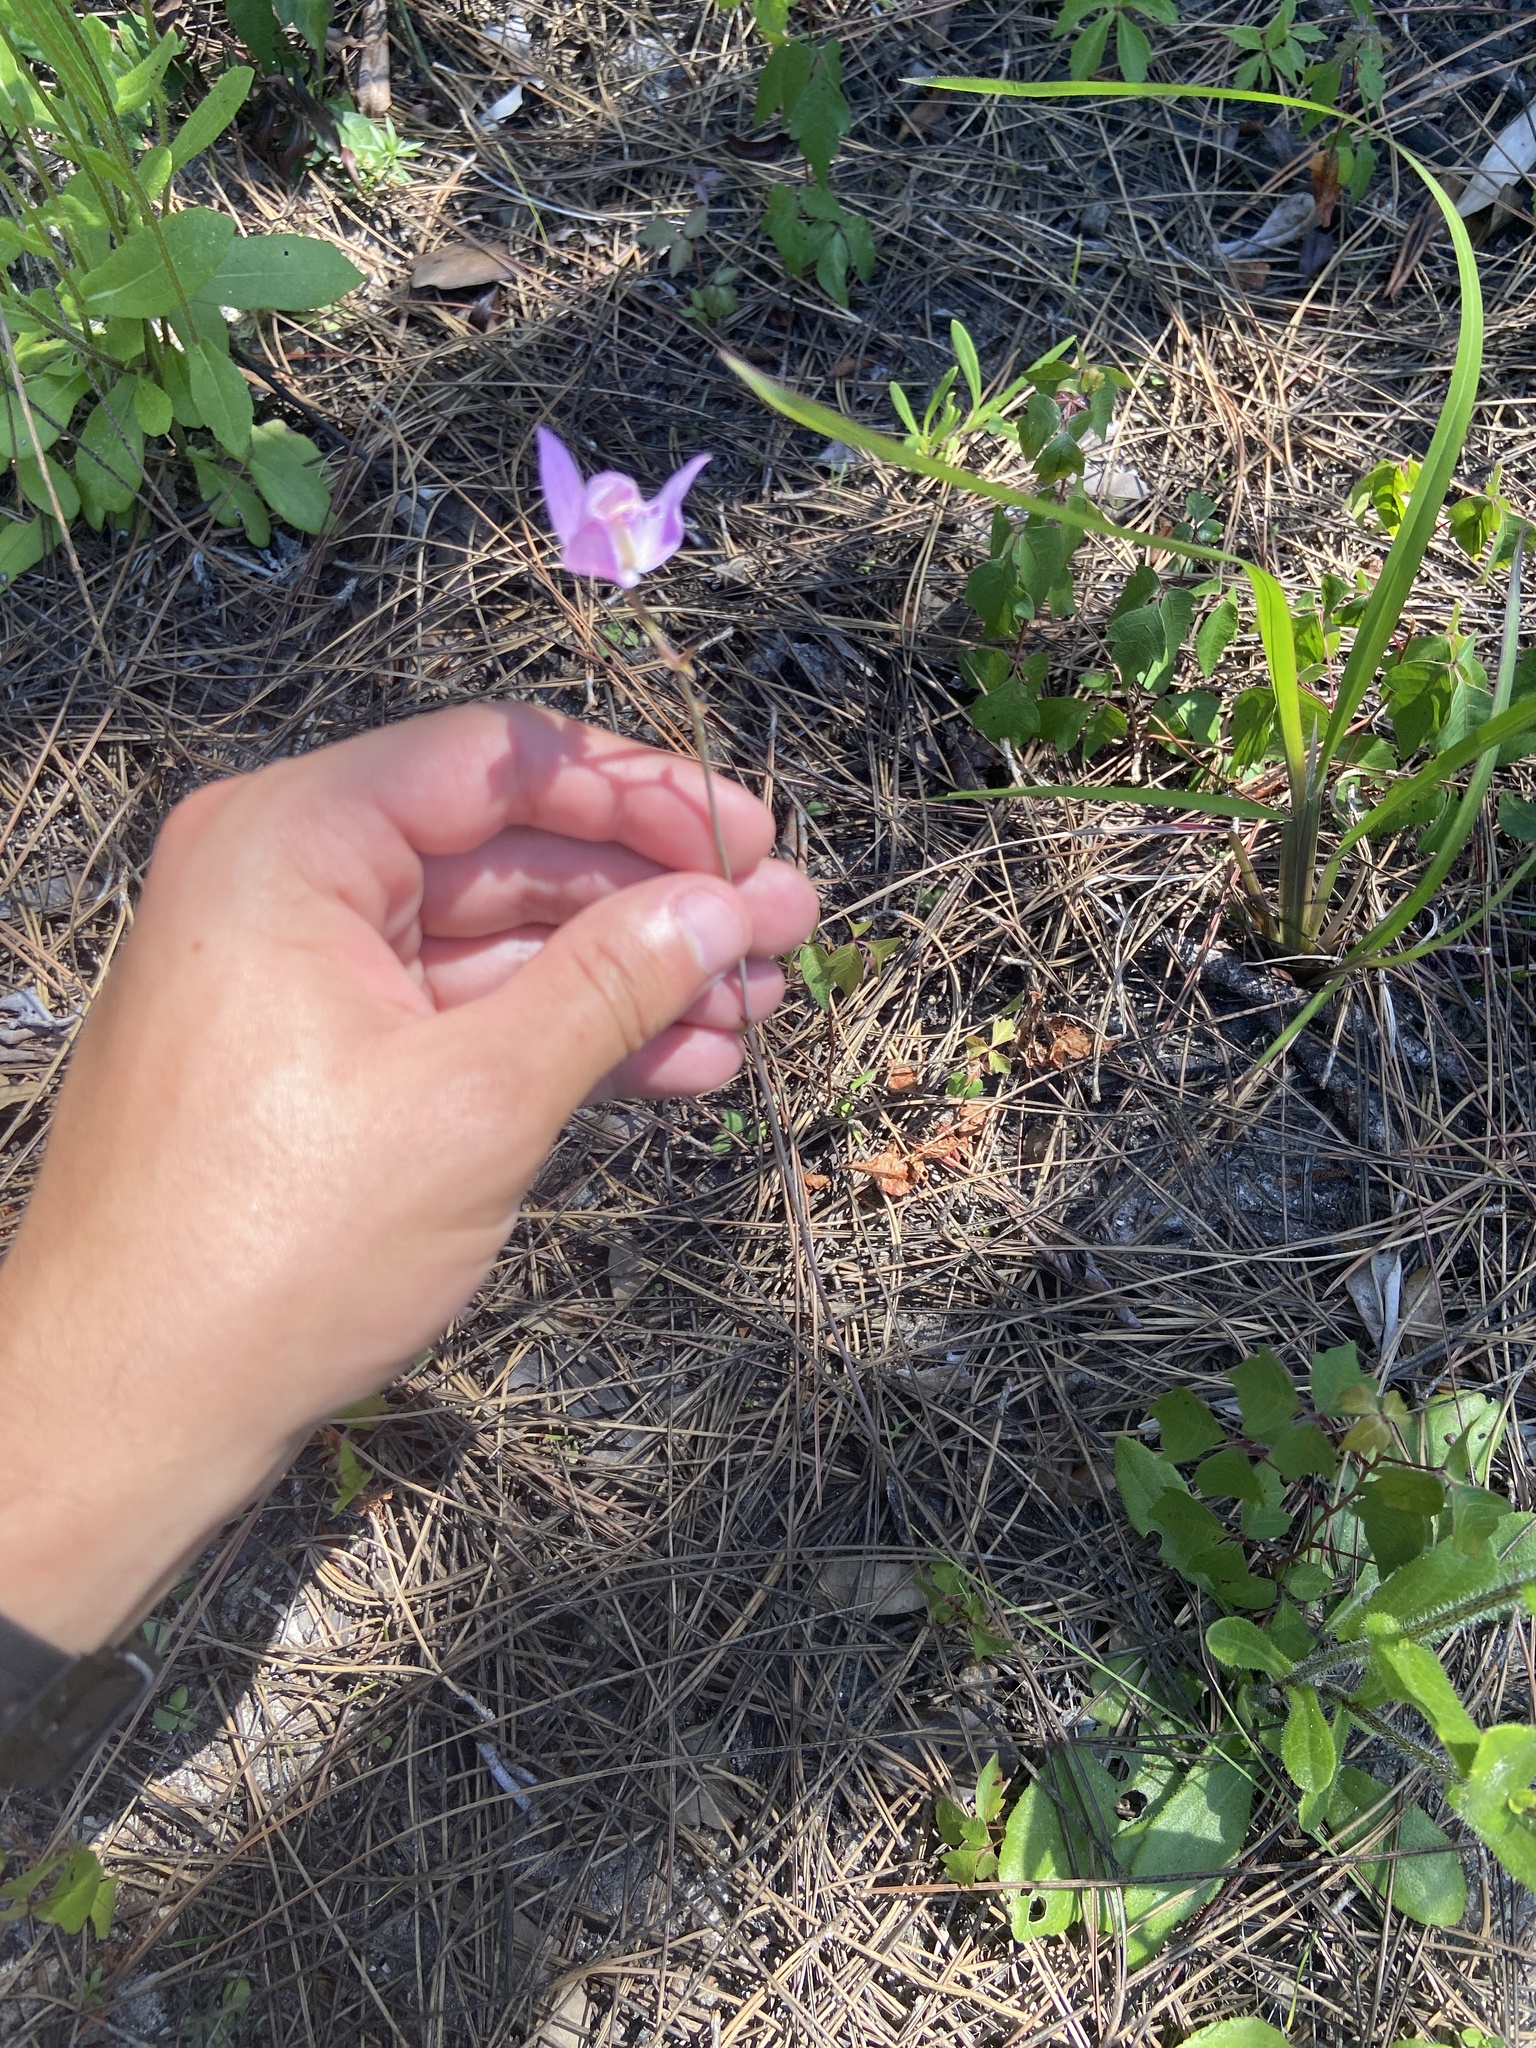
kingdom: Plantae
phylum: Tracheophyta
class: Liliopsida
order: Asparagales
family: Orchidaceae
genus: Bletia
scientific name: Bletia purpurea
